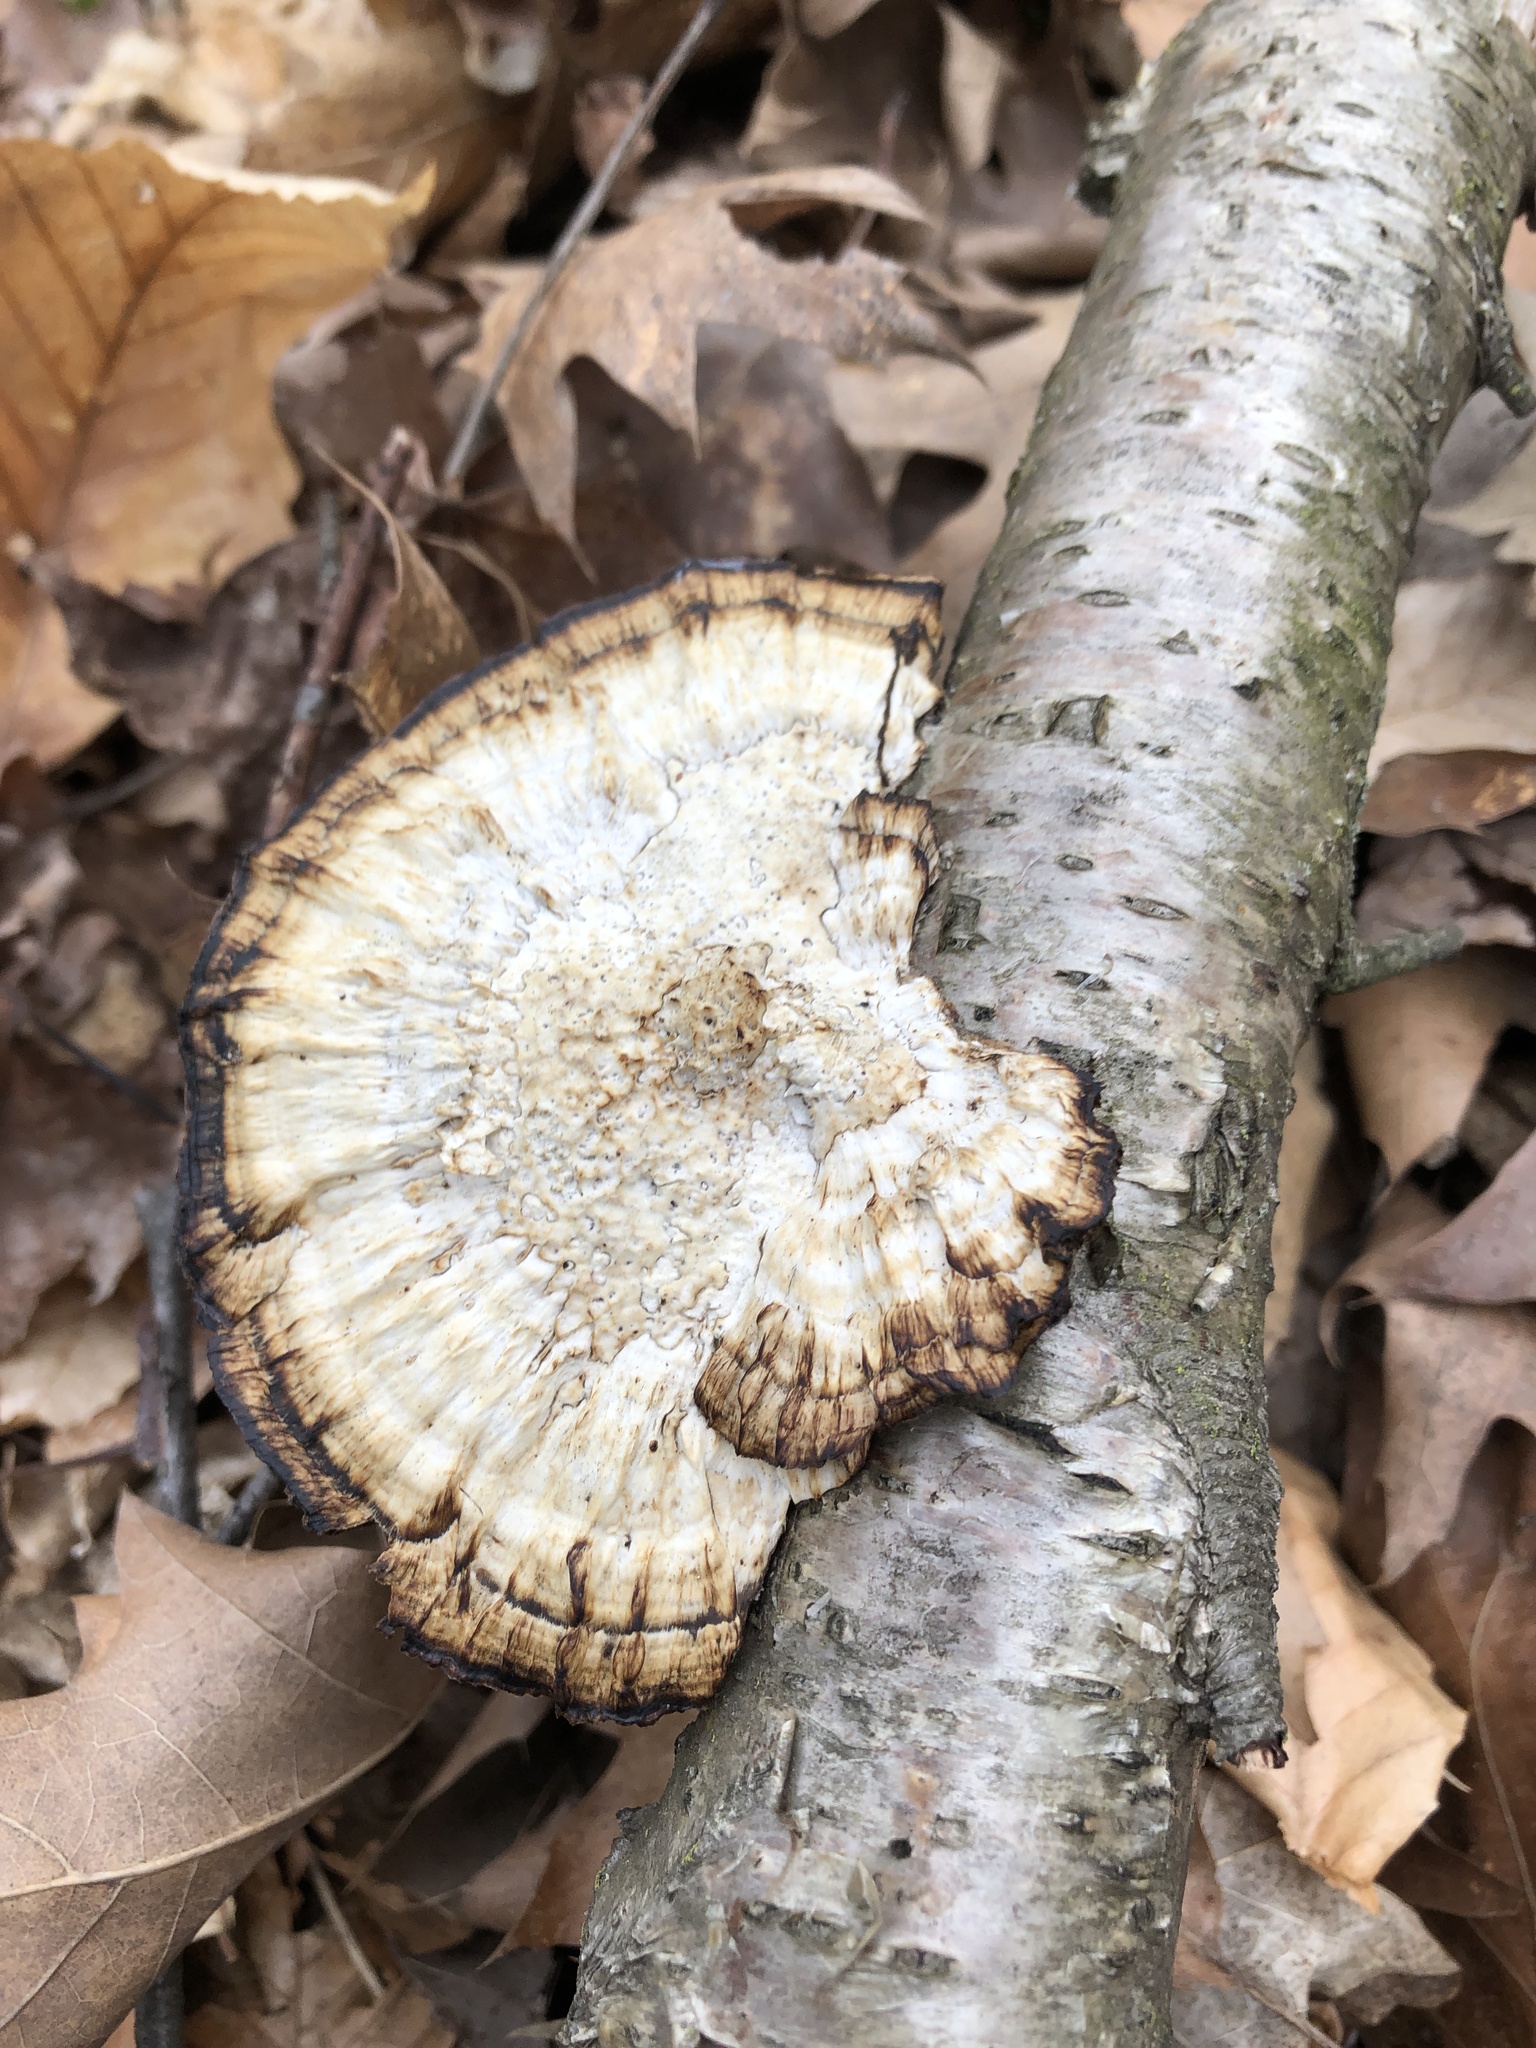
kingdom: Fungi
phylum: Basidiomycota
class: Agaricomycetes
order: Polyporales
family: Polyporaceae
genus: Daedaleopsis
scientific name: Daedaleopsis confragosa
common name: Blushing bracket
